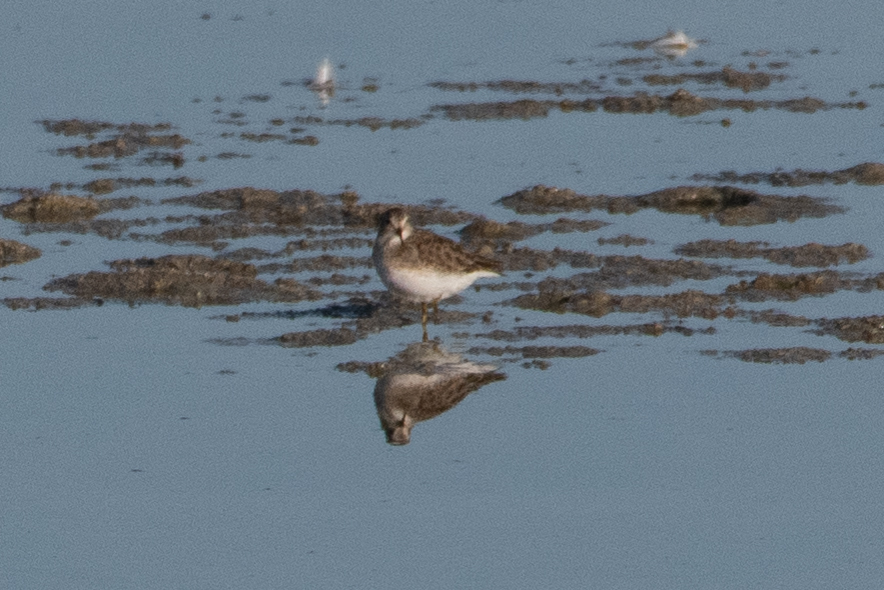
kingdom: Animalia
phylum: Chordata
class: Aves
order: Charadriiformes
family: Scolopacidae
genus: Calidris
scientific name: Calidris minutilla
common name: Least sandpiper
